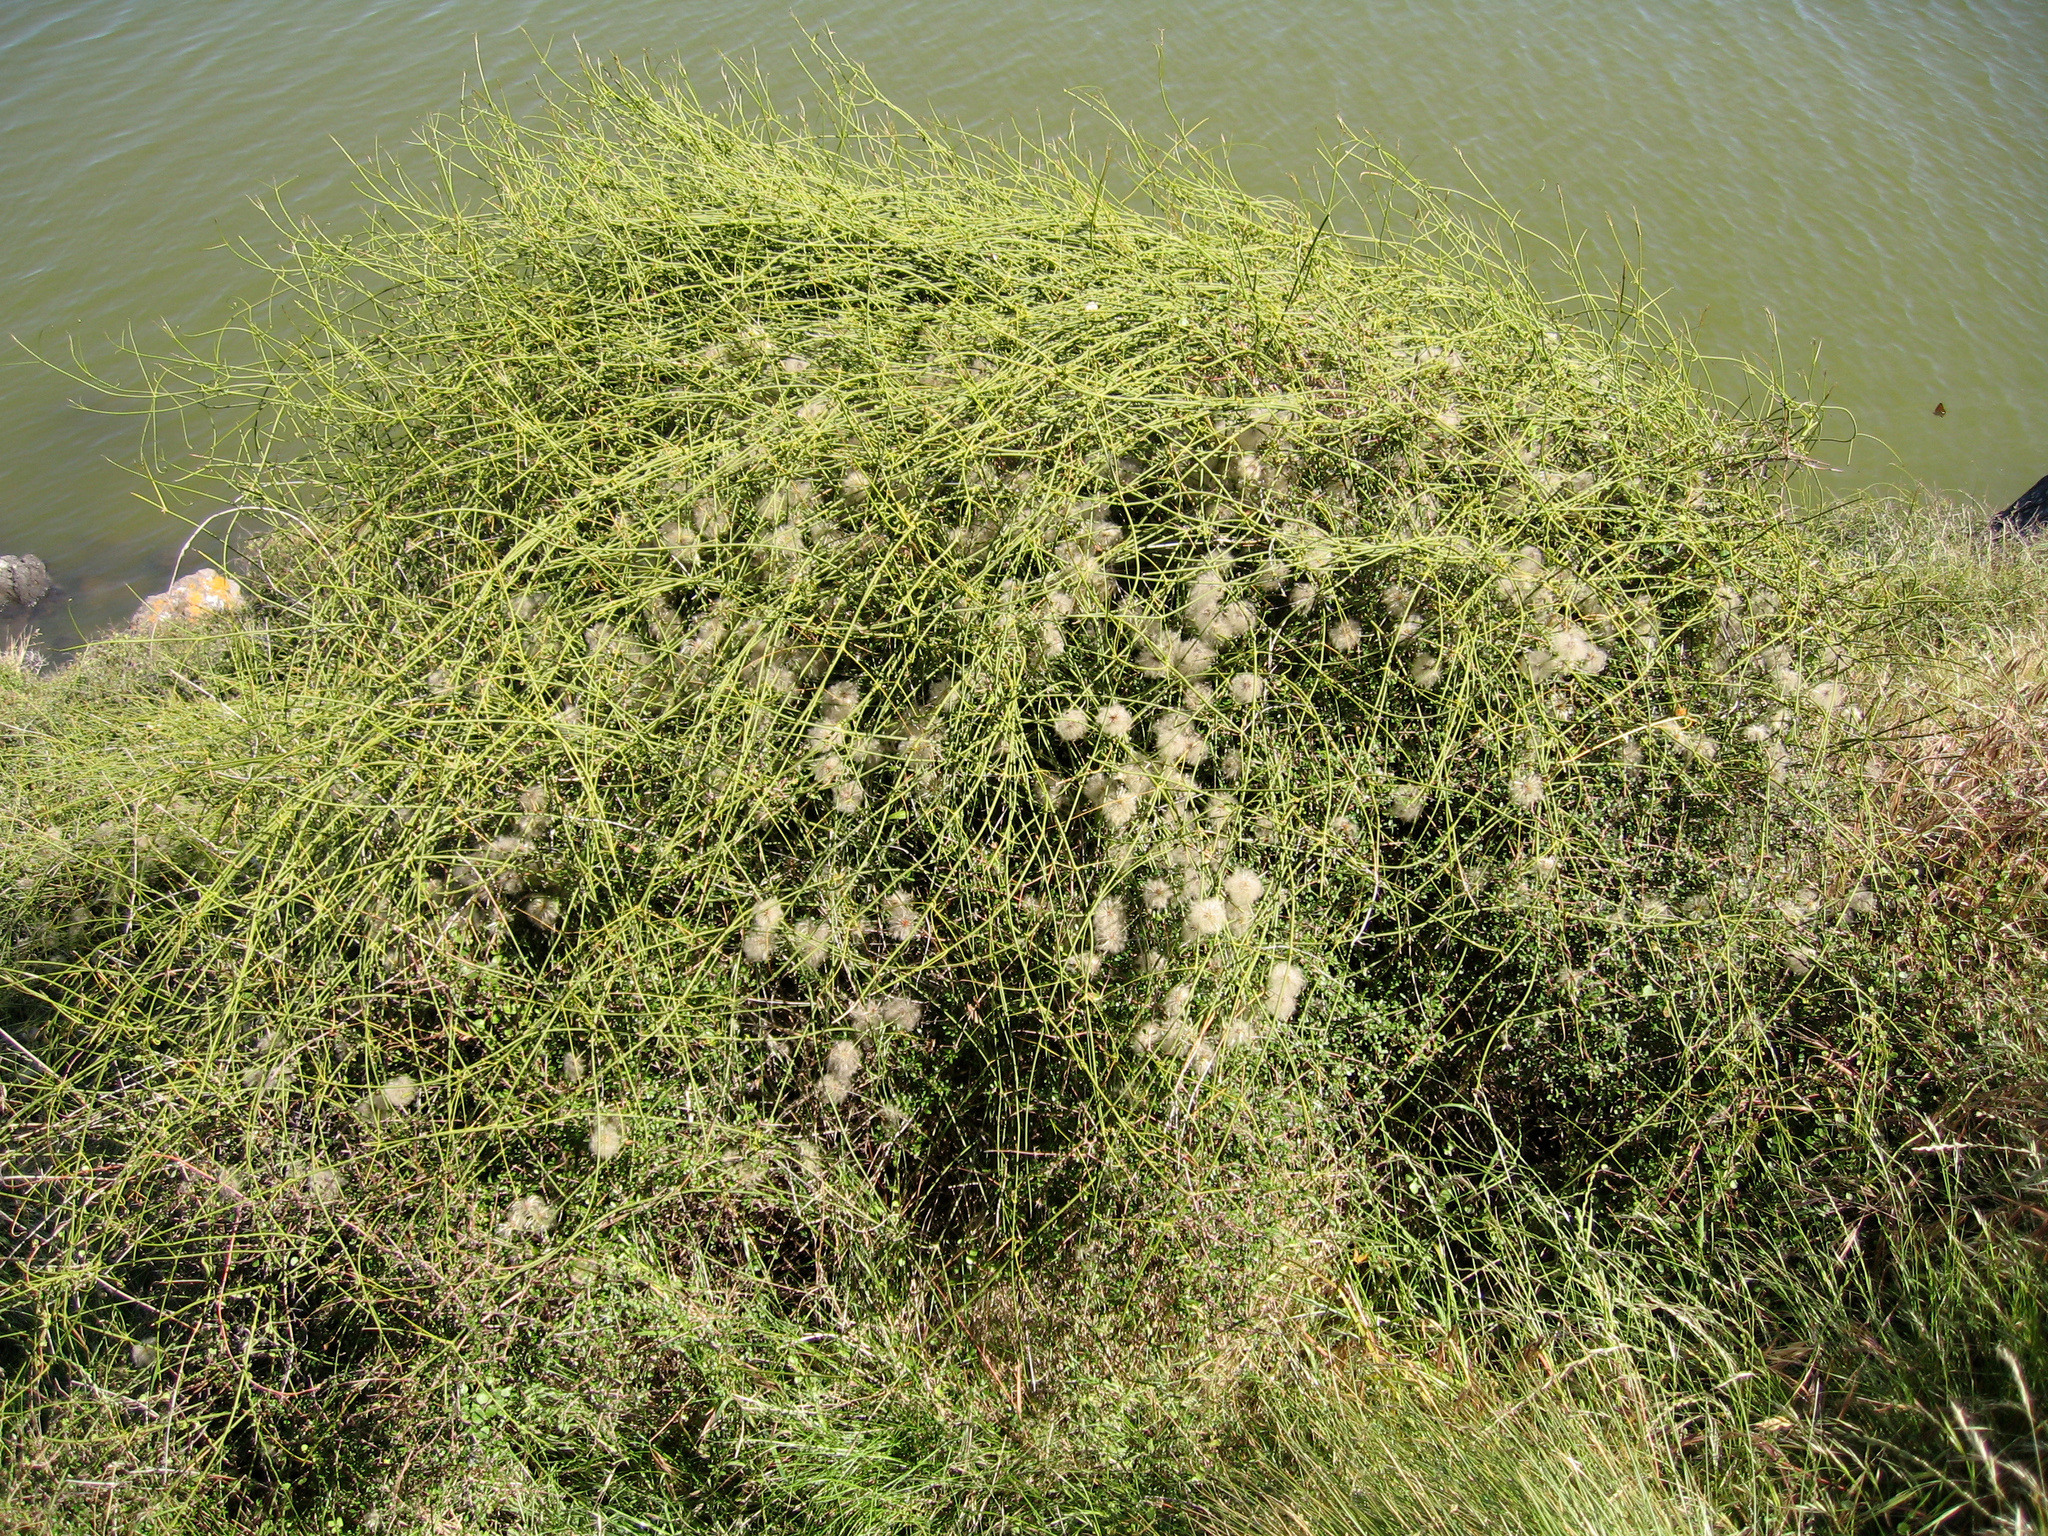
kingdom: Plantae
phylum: Tracheophyta
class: Magnoliopsida
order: Ranunculales
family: Ranunculaceae
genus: Clematis
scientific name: Clematis afoliata
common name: Rush-stem clematis
